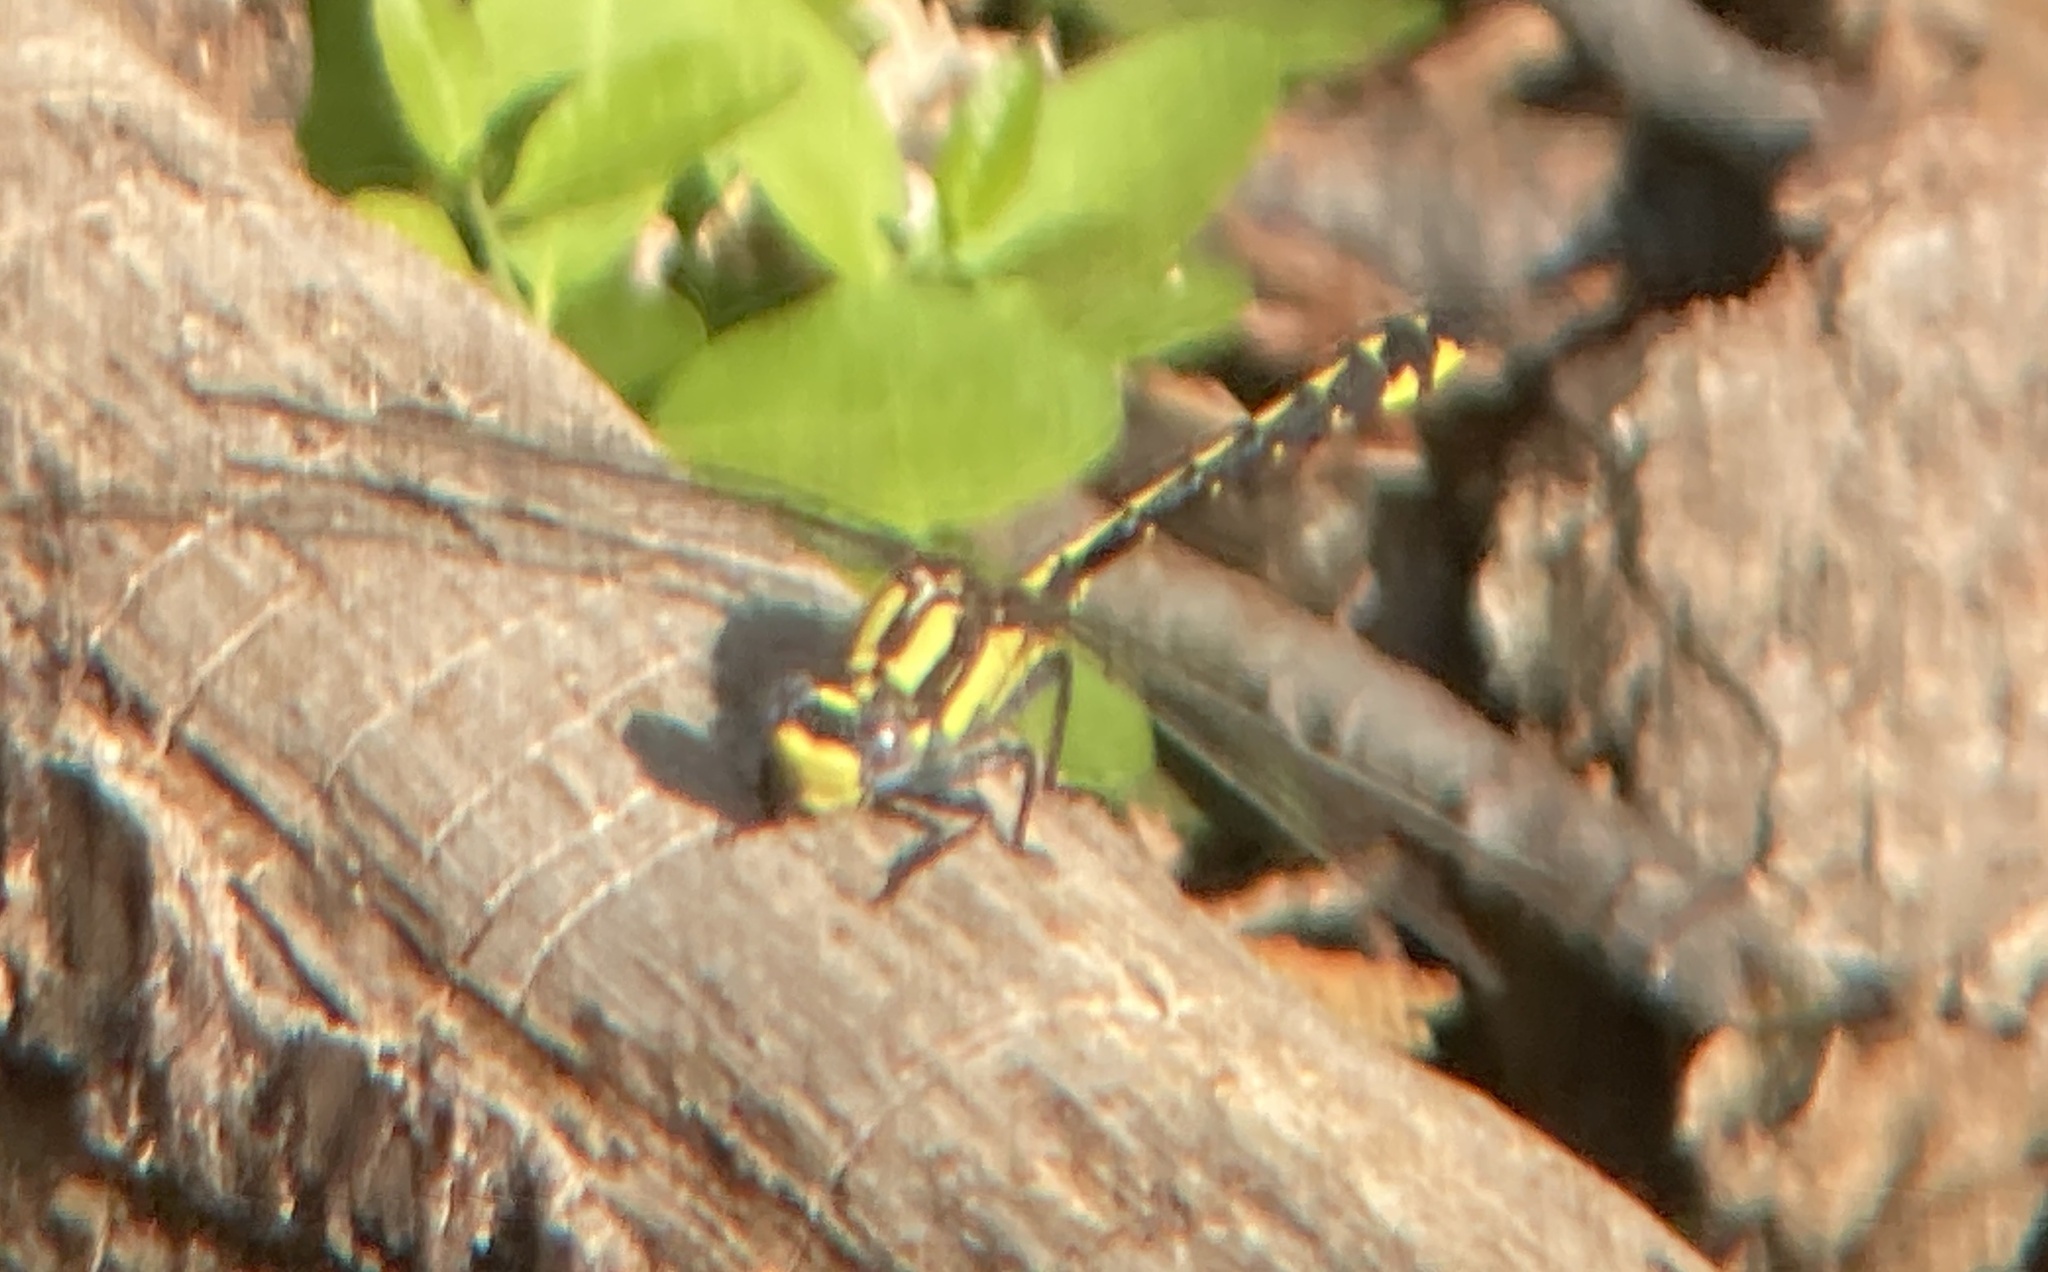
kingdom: Animalia
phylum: Arthropoda
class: Insecta
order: Odonata
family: Gomphidae
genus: Phanogomphus
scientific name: Phanogomphus kurilis
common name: Pacific clubtail
